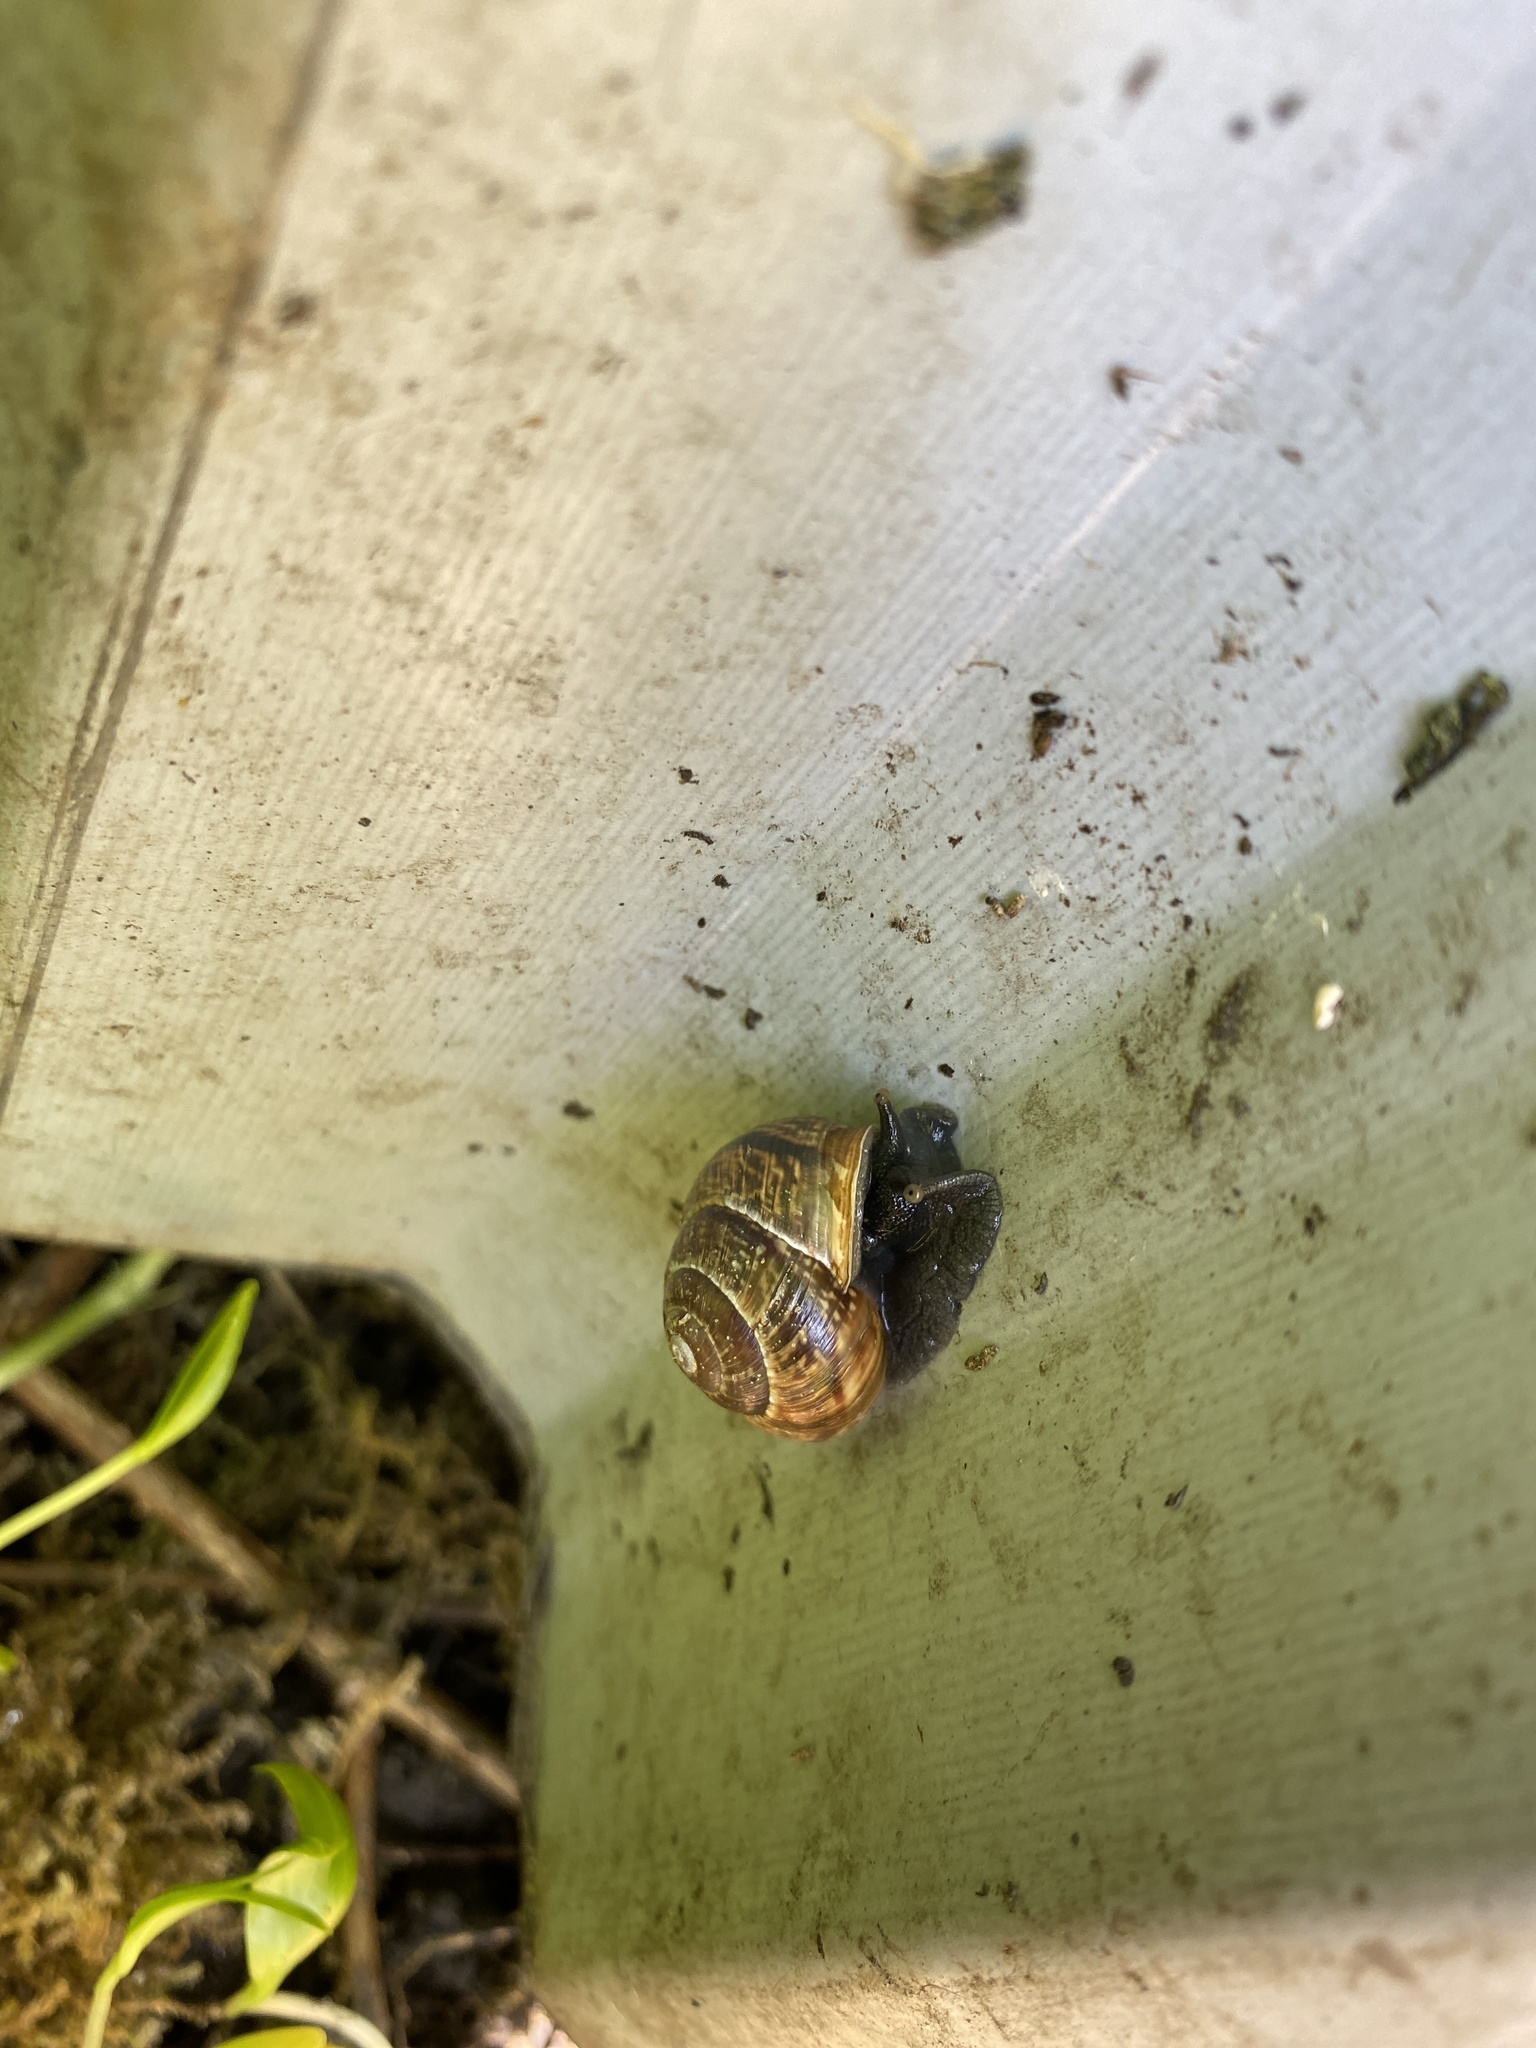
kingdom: Animalia
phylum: Mollusca
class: Gastropoda
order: Stylommatophora
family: Helicidae
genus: Arianta
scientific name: Arianta arbustorum
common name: Copse snail
